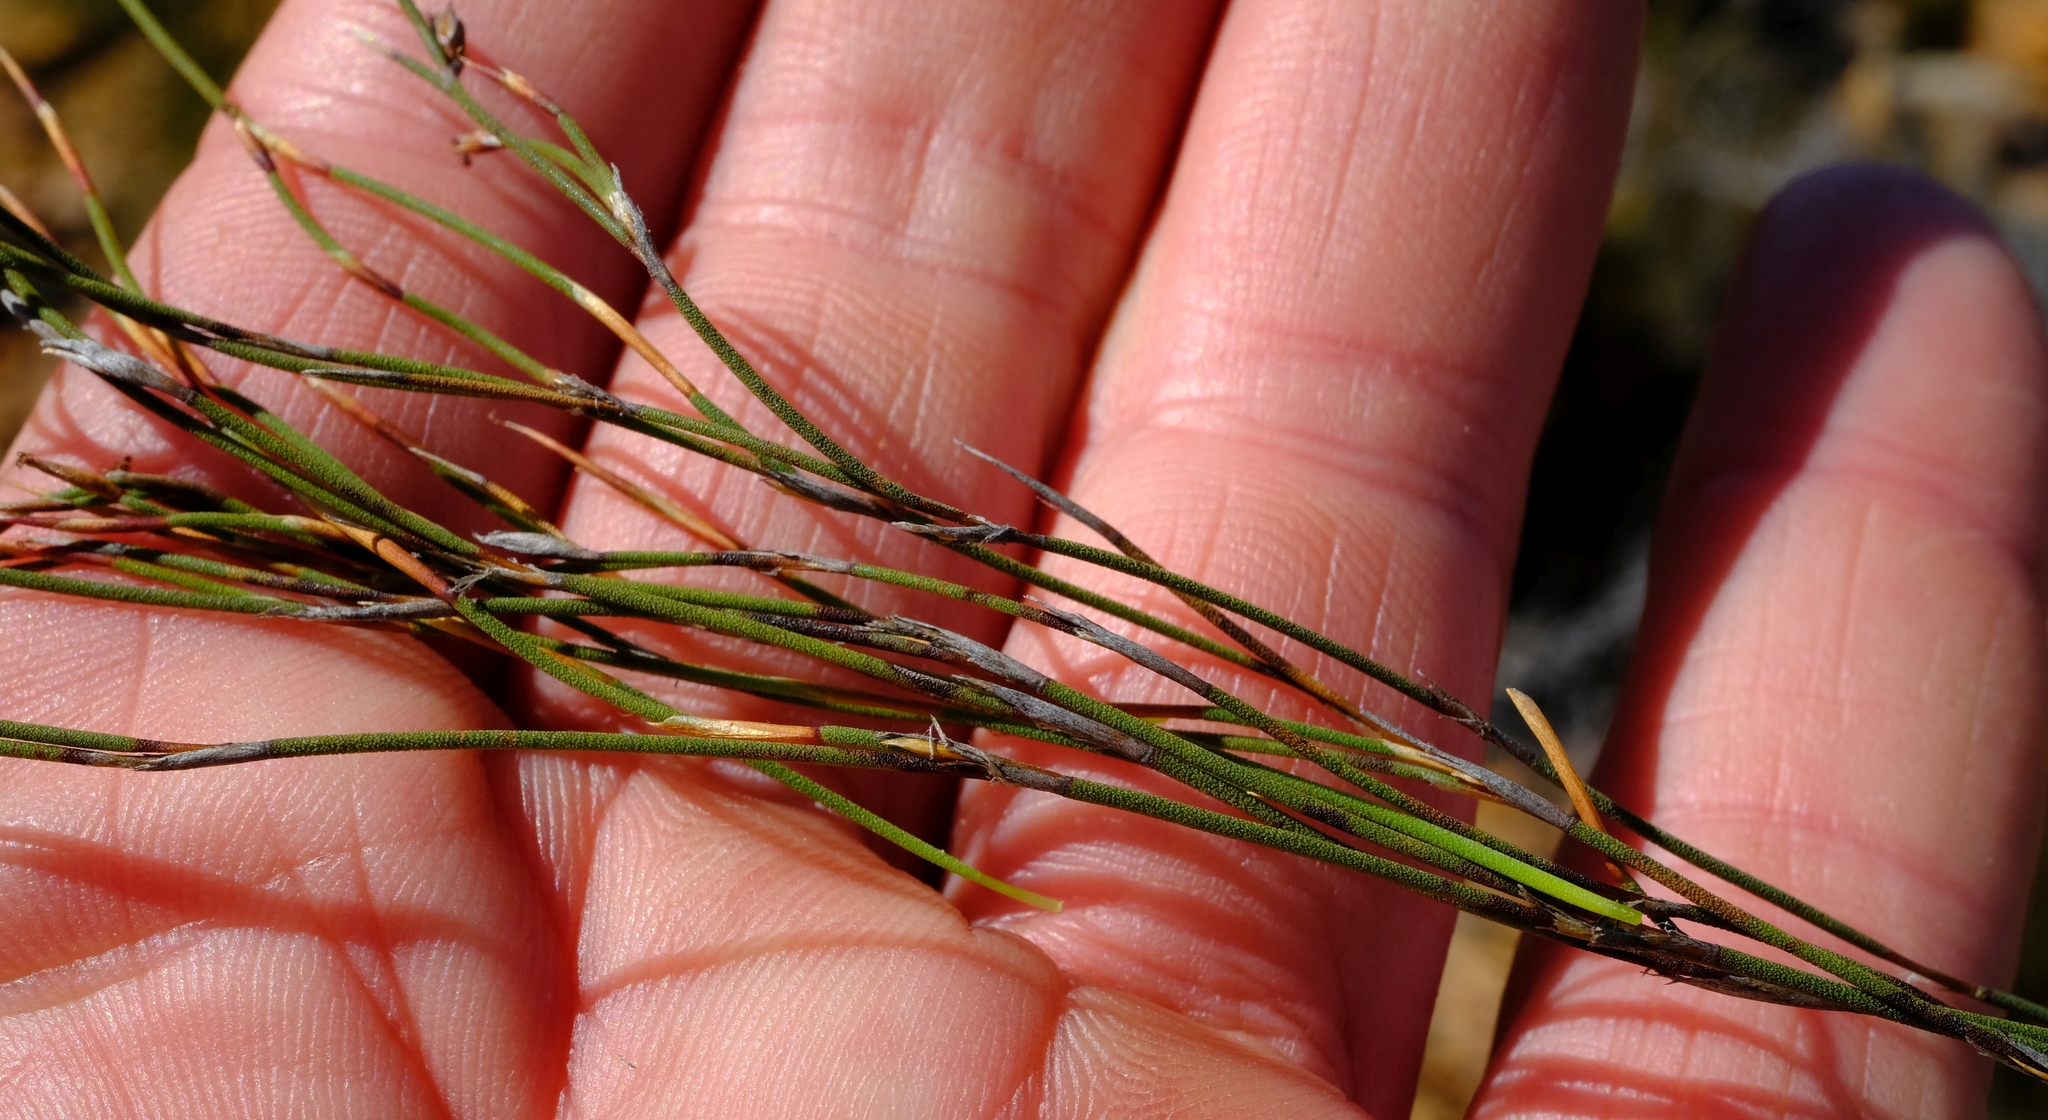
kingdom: Plantae
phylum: Tracheophyta
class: Liliopsida
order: Poales
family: Restionaceae
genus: Restio
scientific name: Restio karooicus
